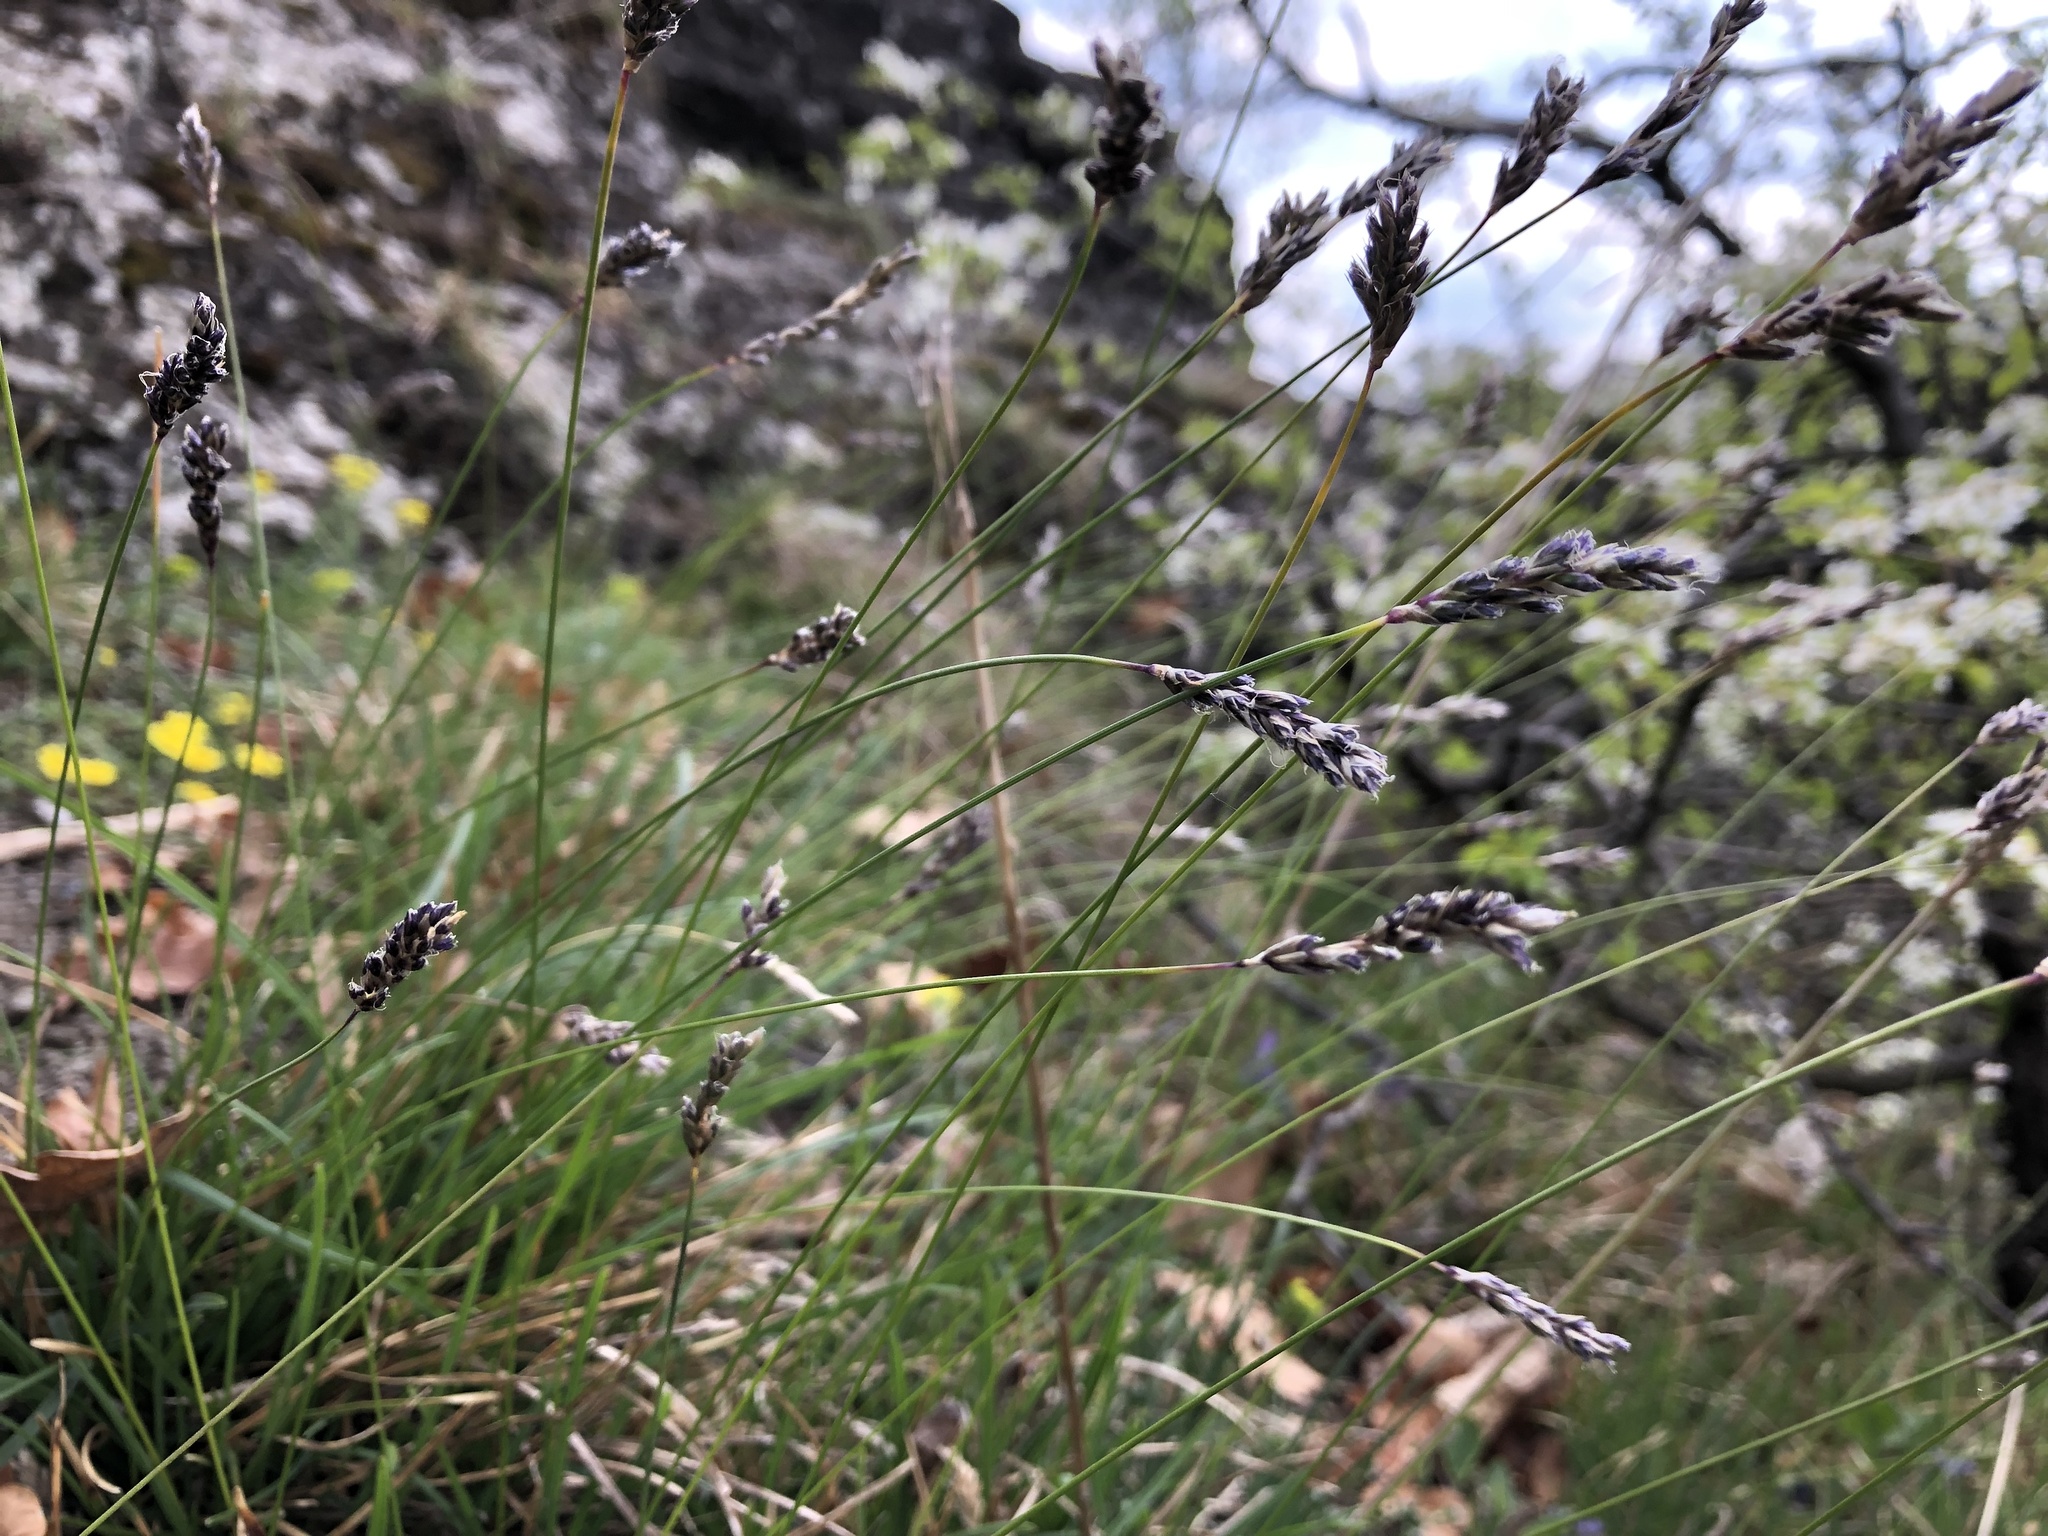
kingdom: Plantae
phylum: Tracheophyta
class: Liliopsida
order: Poales
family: Poaceae
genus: Sesleria
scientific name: Sesleria caerulea
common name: Blue moor-grass
